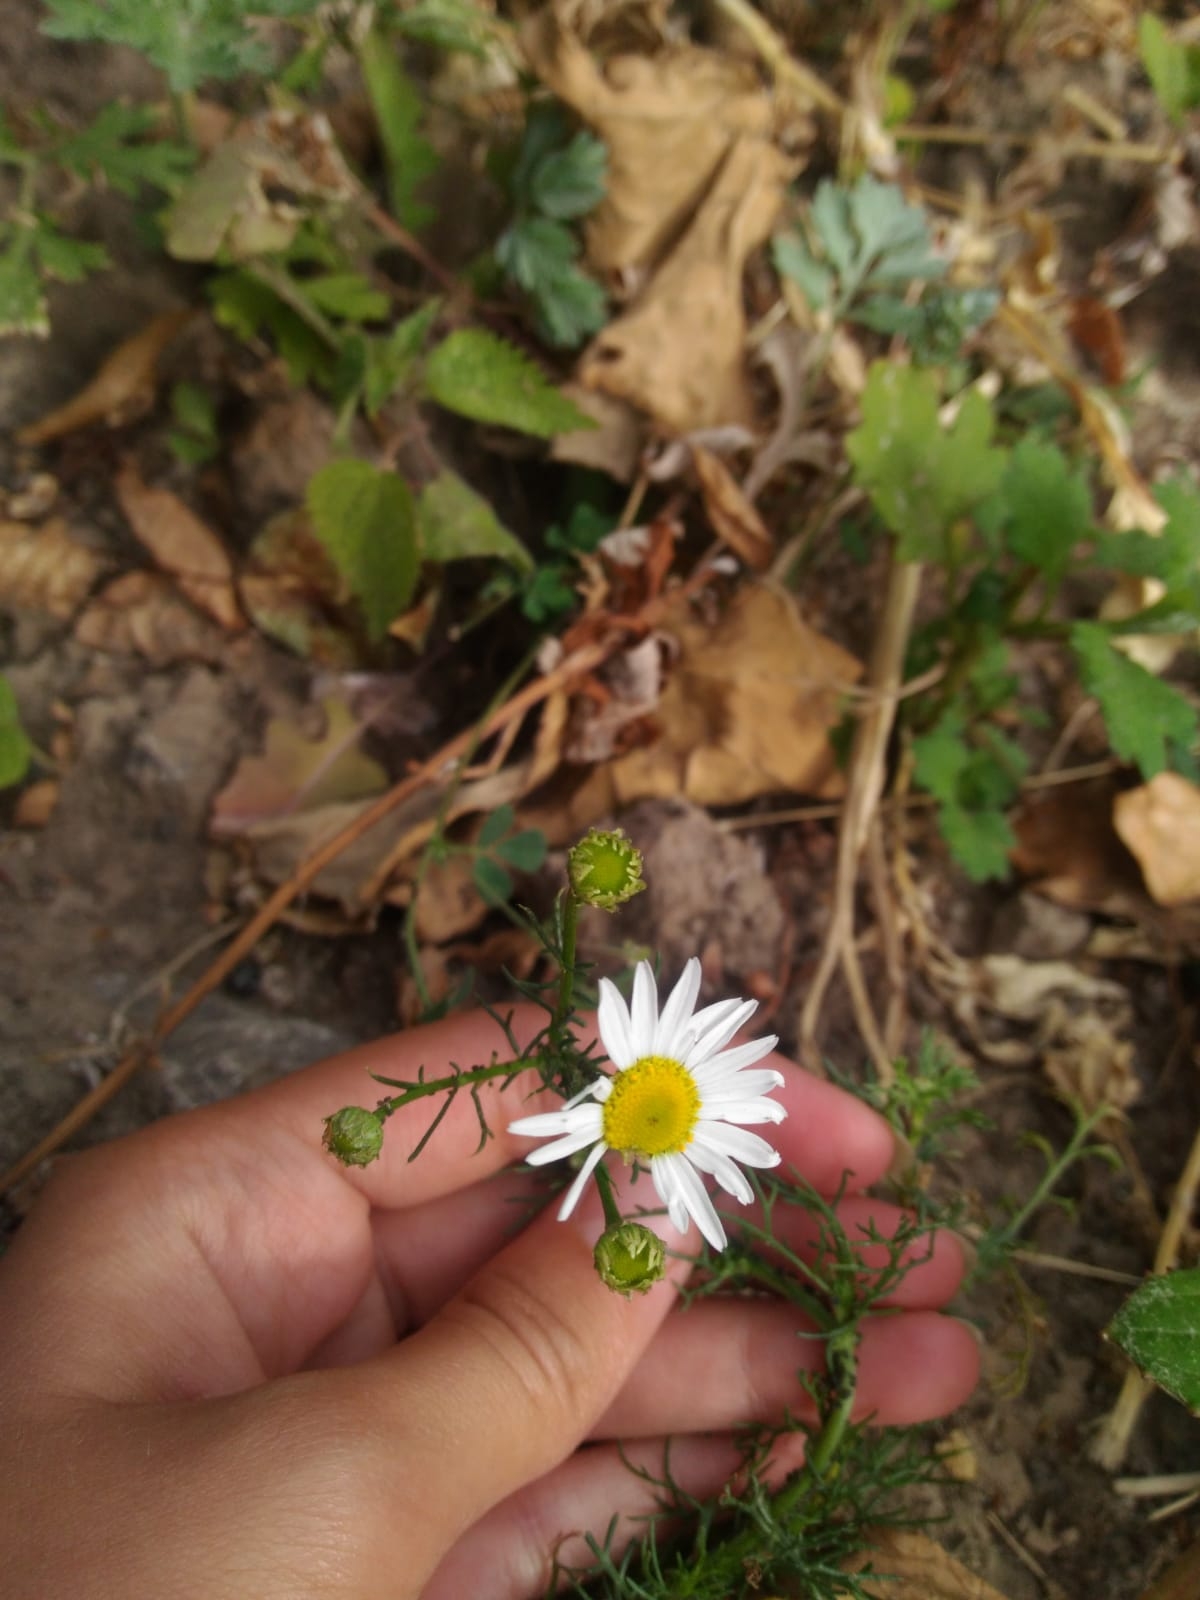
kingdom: Plantae
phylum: Tracheophyta
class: Magnoliopsida
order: Asterales
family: Asteraceae
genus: Tripleurospermum
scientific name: Tripleurospermum inodorum
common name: Scentless mayweed
